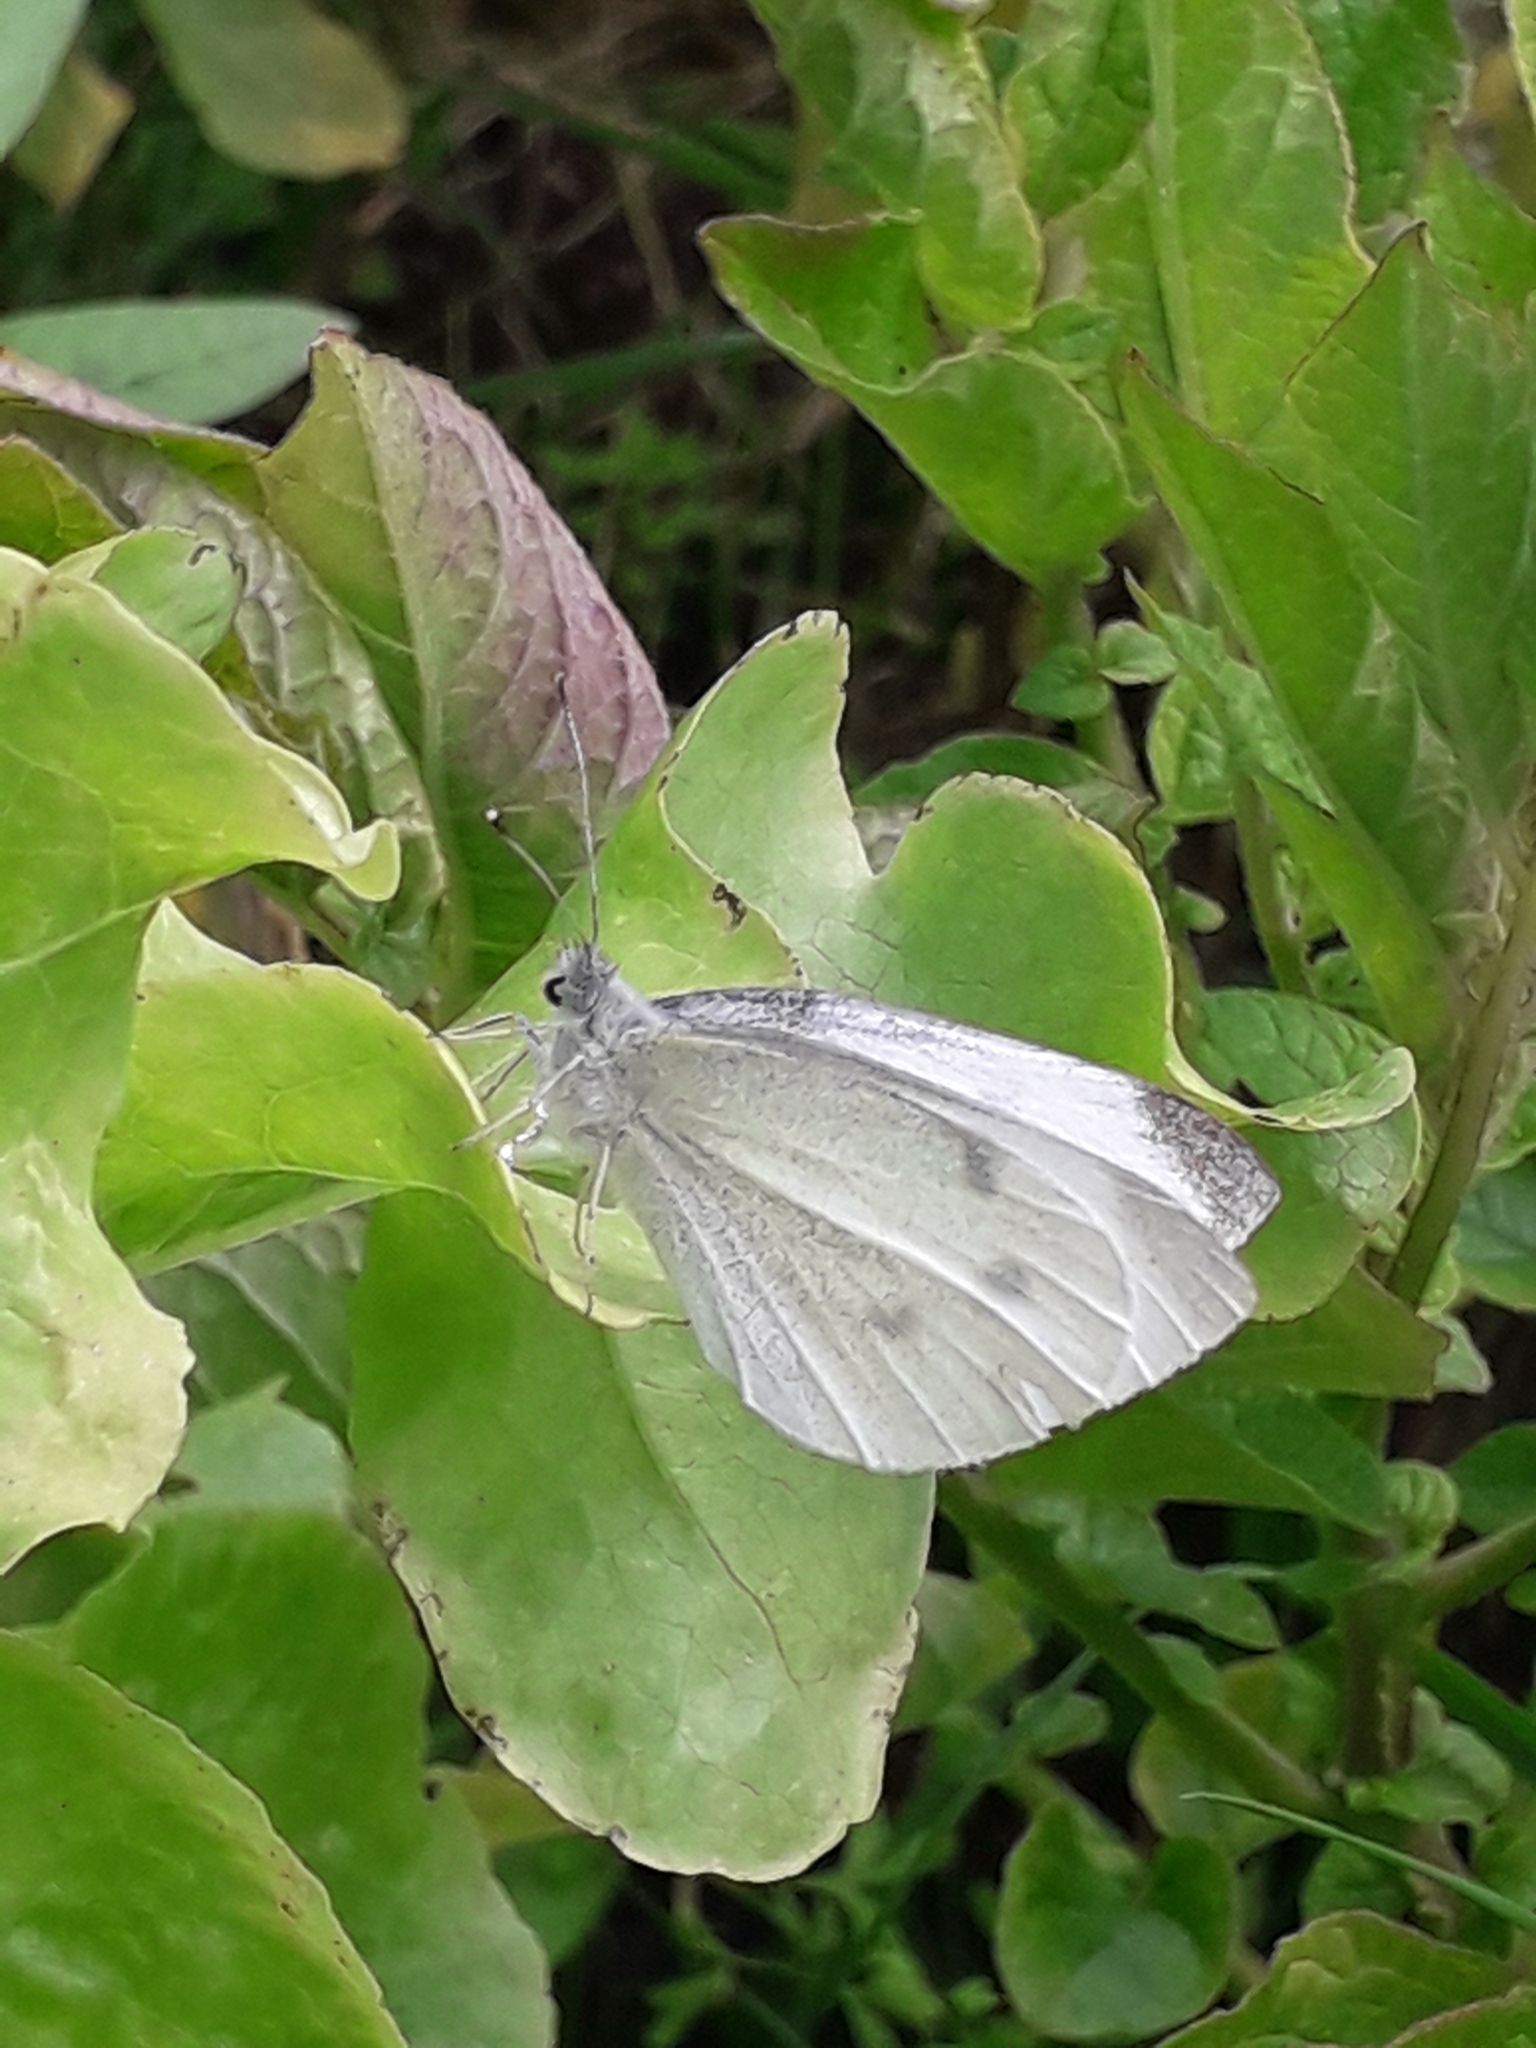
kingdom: Animalia
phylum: Arthropoda
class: Insecta
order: Lepidoptera
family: Pieridae
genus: Pieris
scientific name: Pieris rapae
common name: Small white
